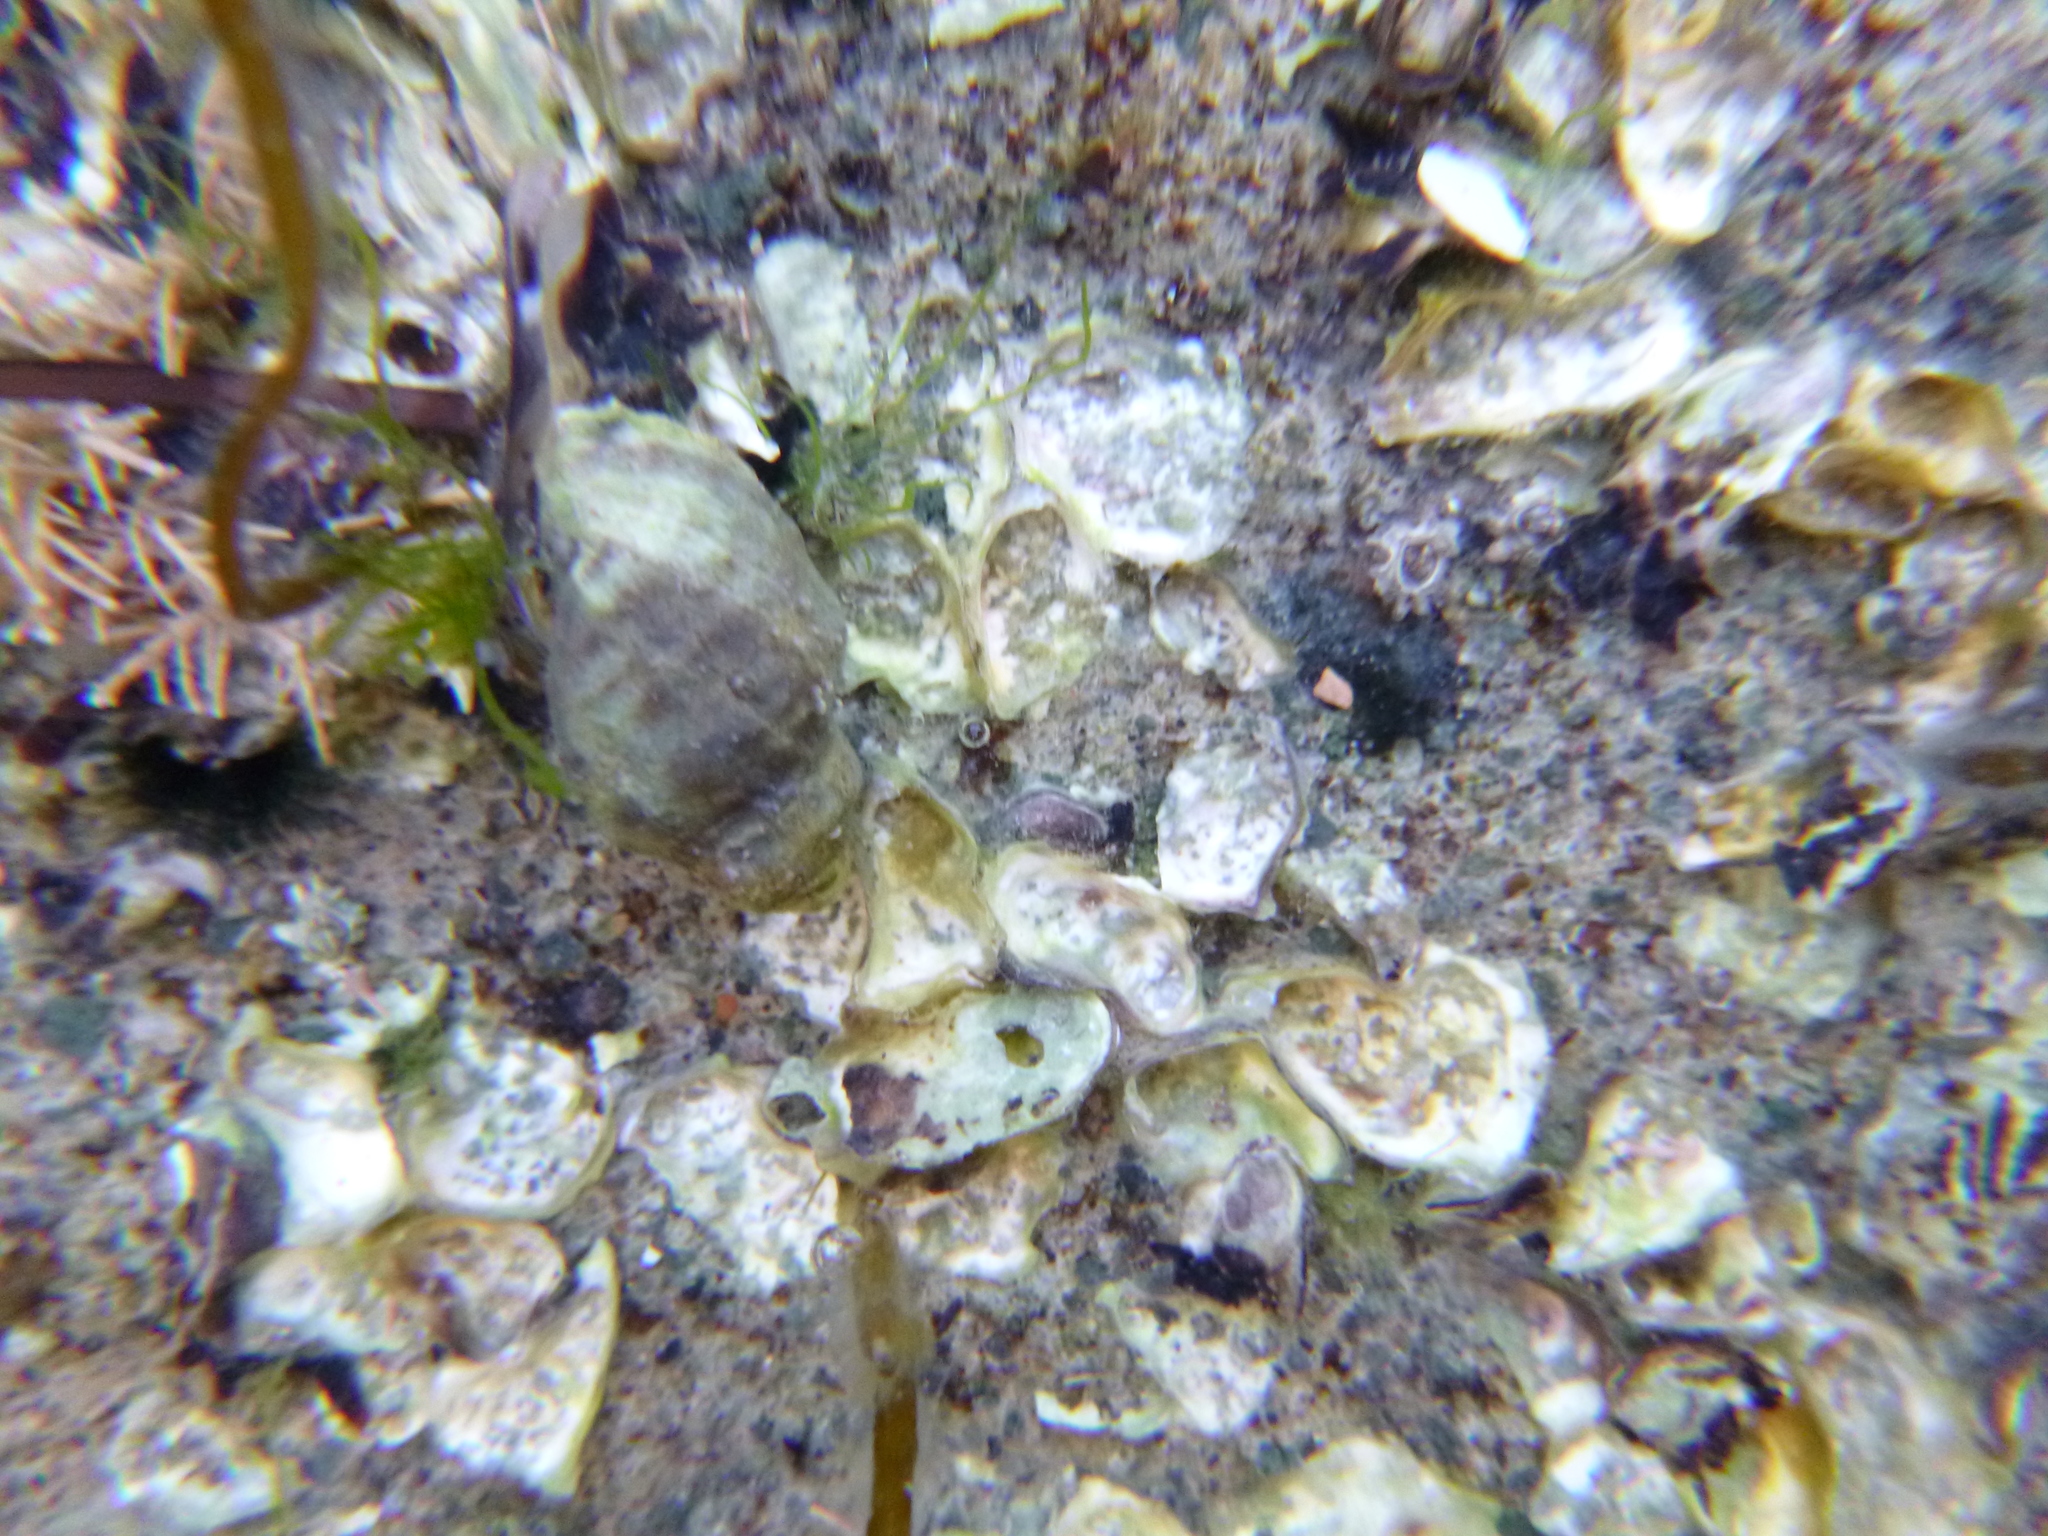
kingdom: Animalia
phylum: Mollusca
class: Gastropoda
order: Neogastropoda
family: Muricidae
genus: Haustrum
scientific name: Haustrum albomarginatum
